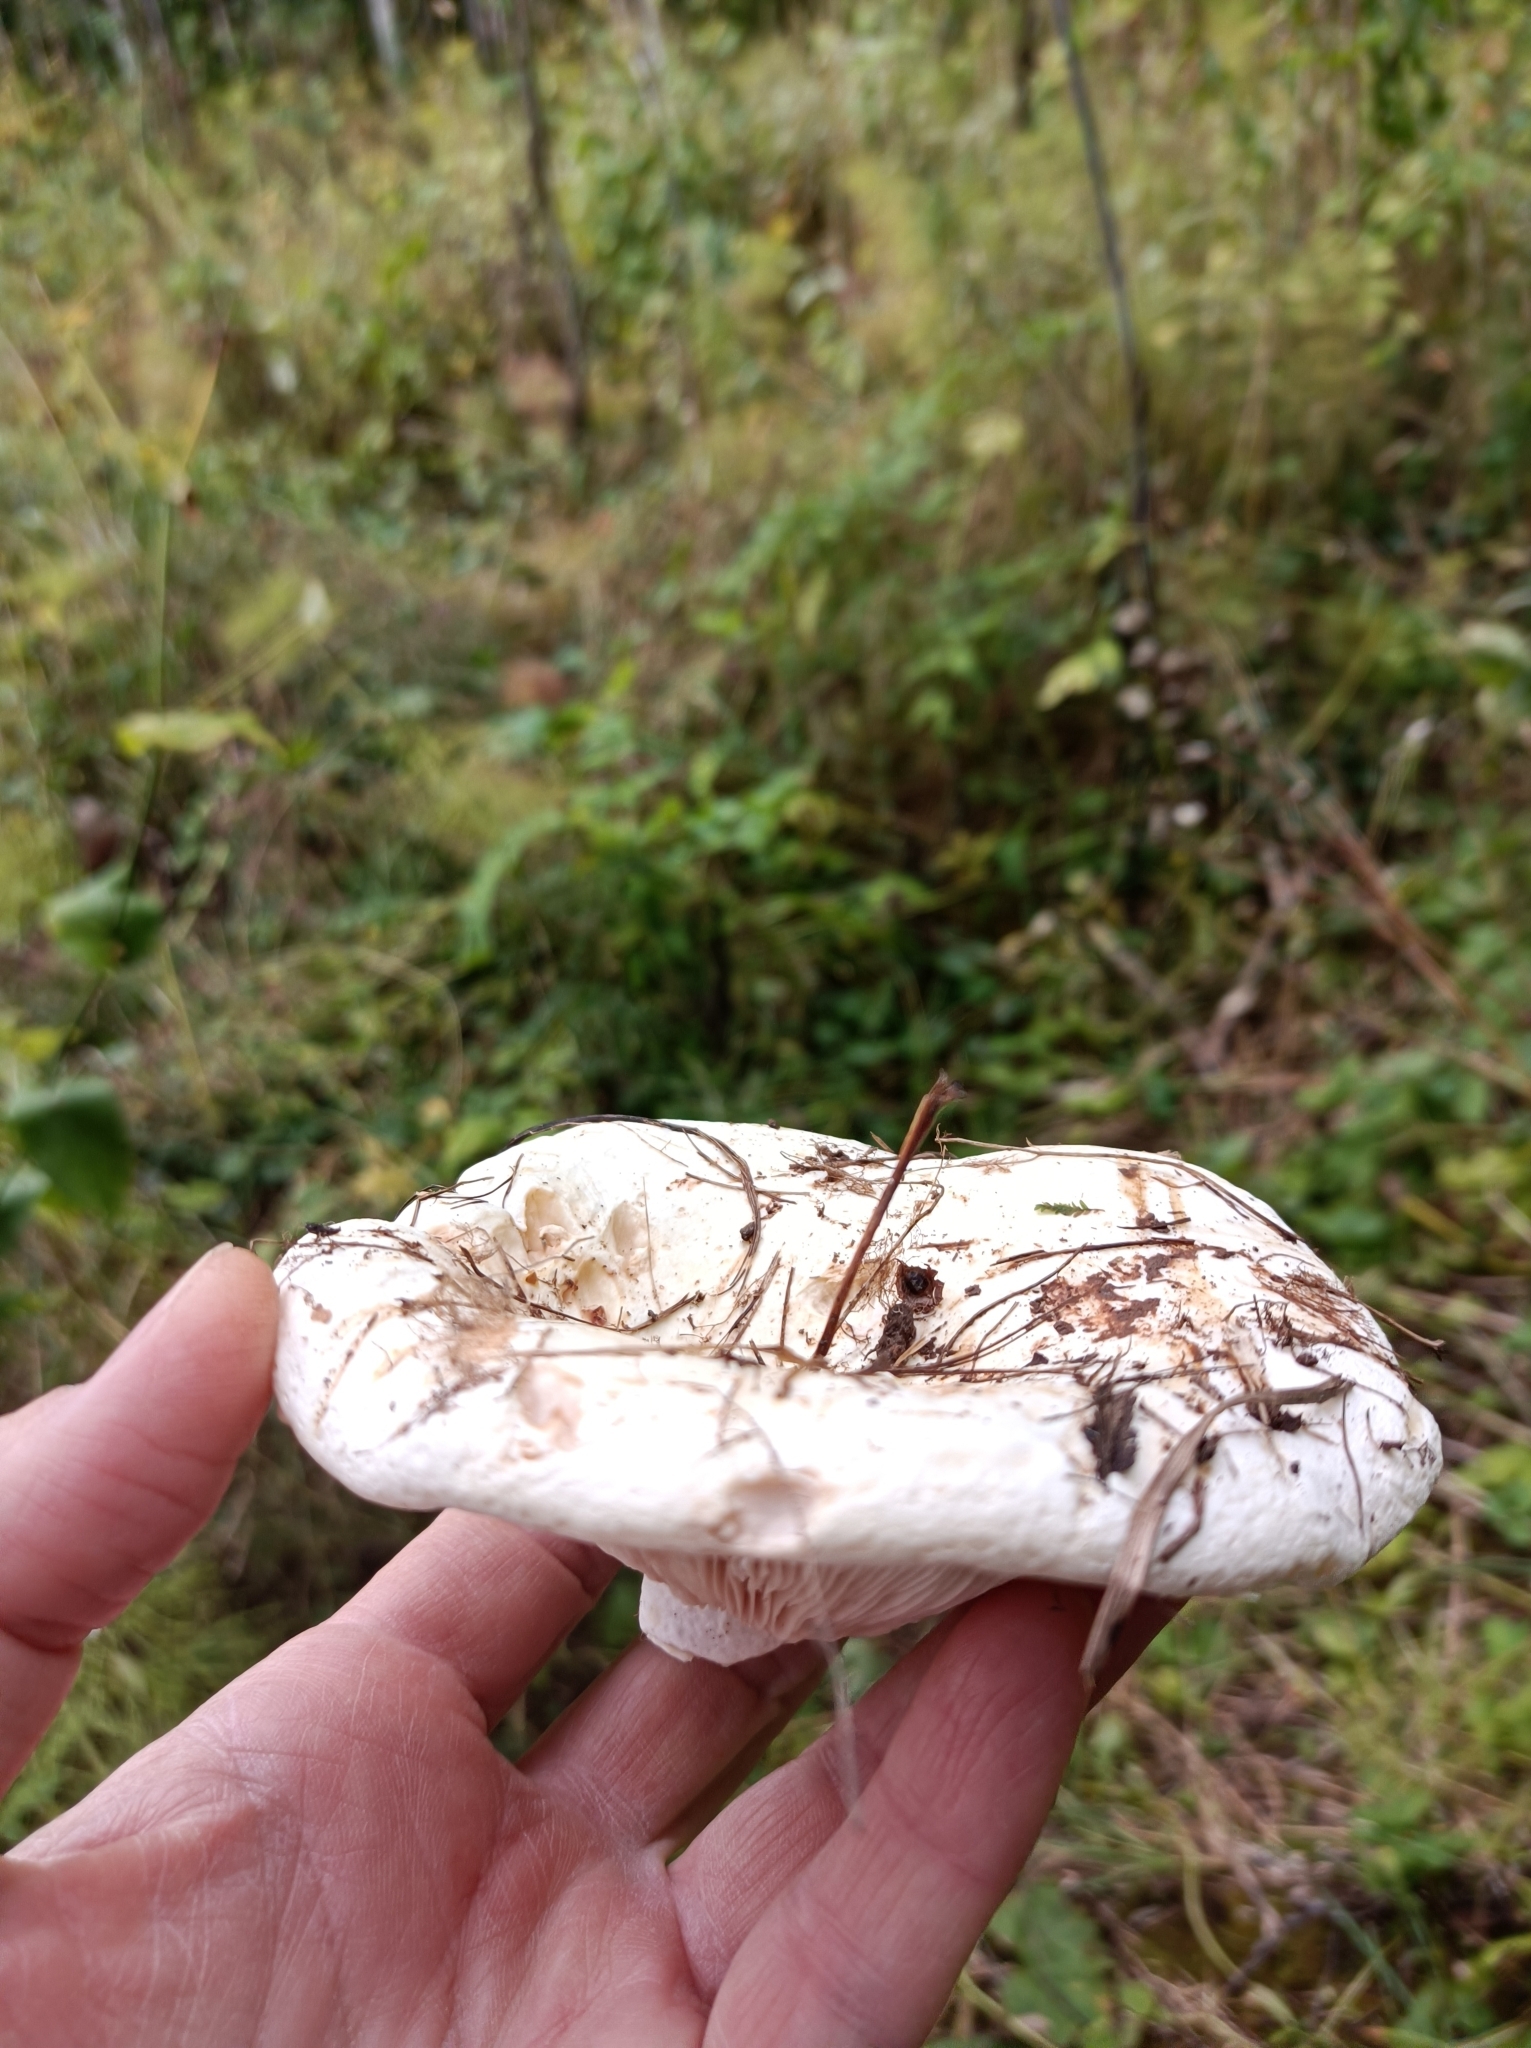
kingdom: Fungi
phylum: Basidiomycota
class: Agaricomycetes
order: Russulales
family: Russulaceae
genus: Lactarius
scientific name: Lactarius controversus
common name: Blushing milkcap
